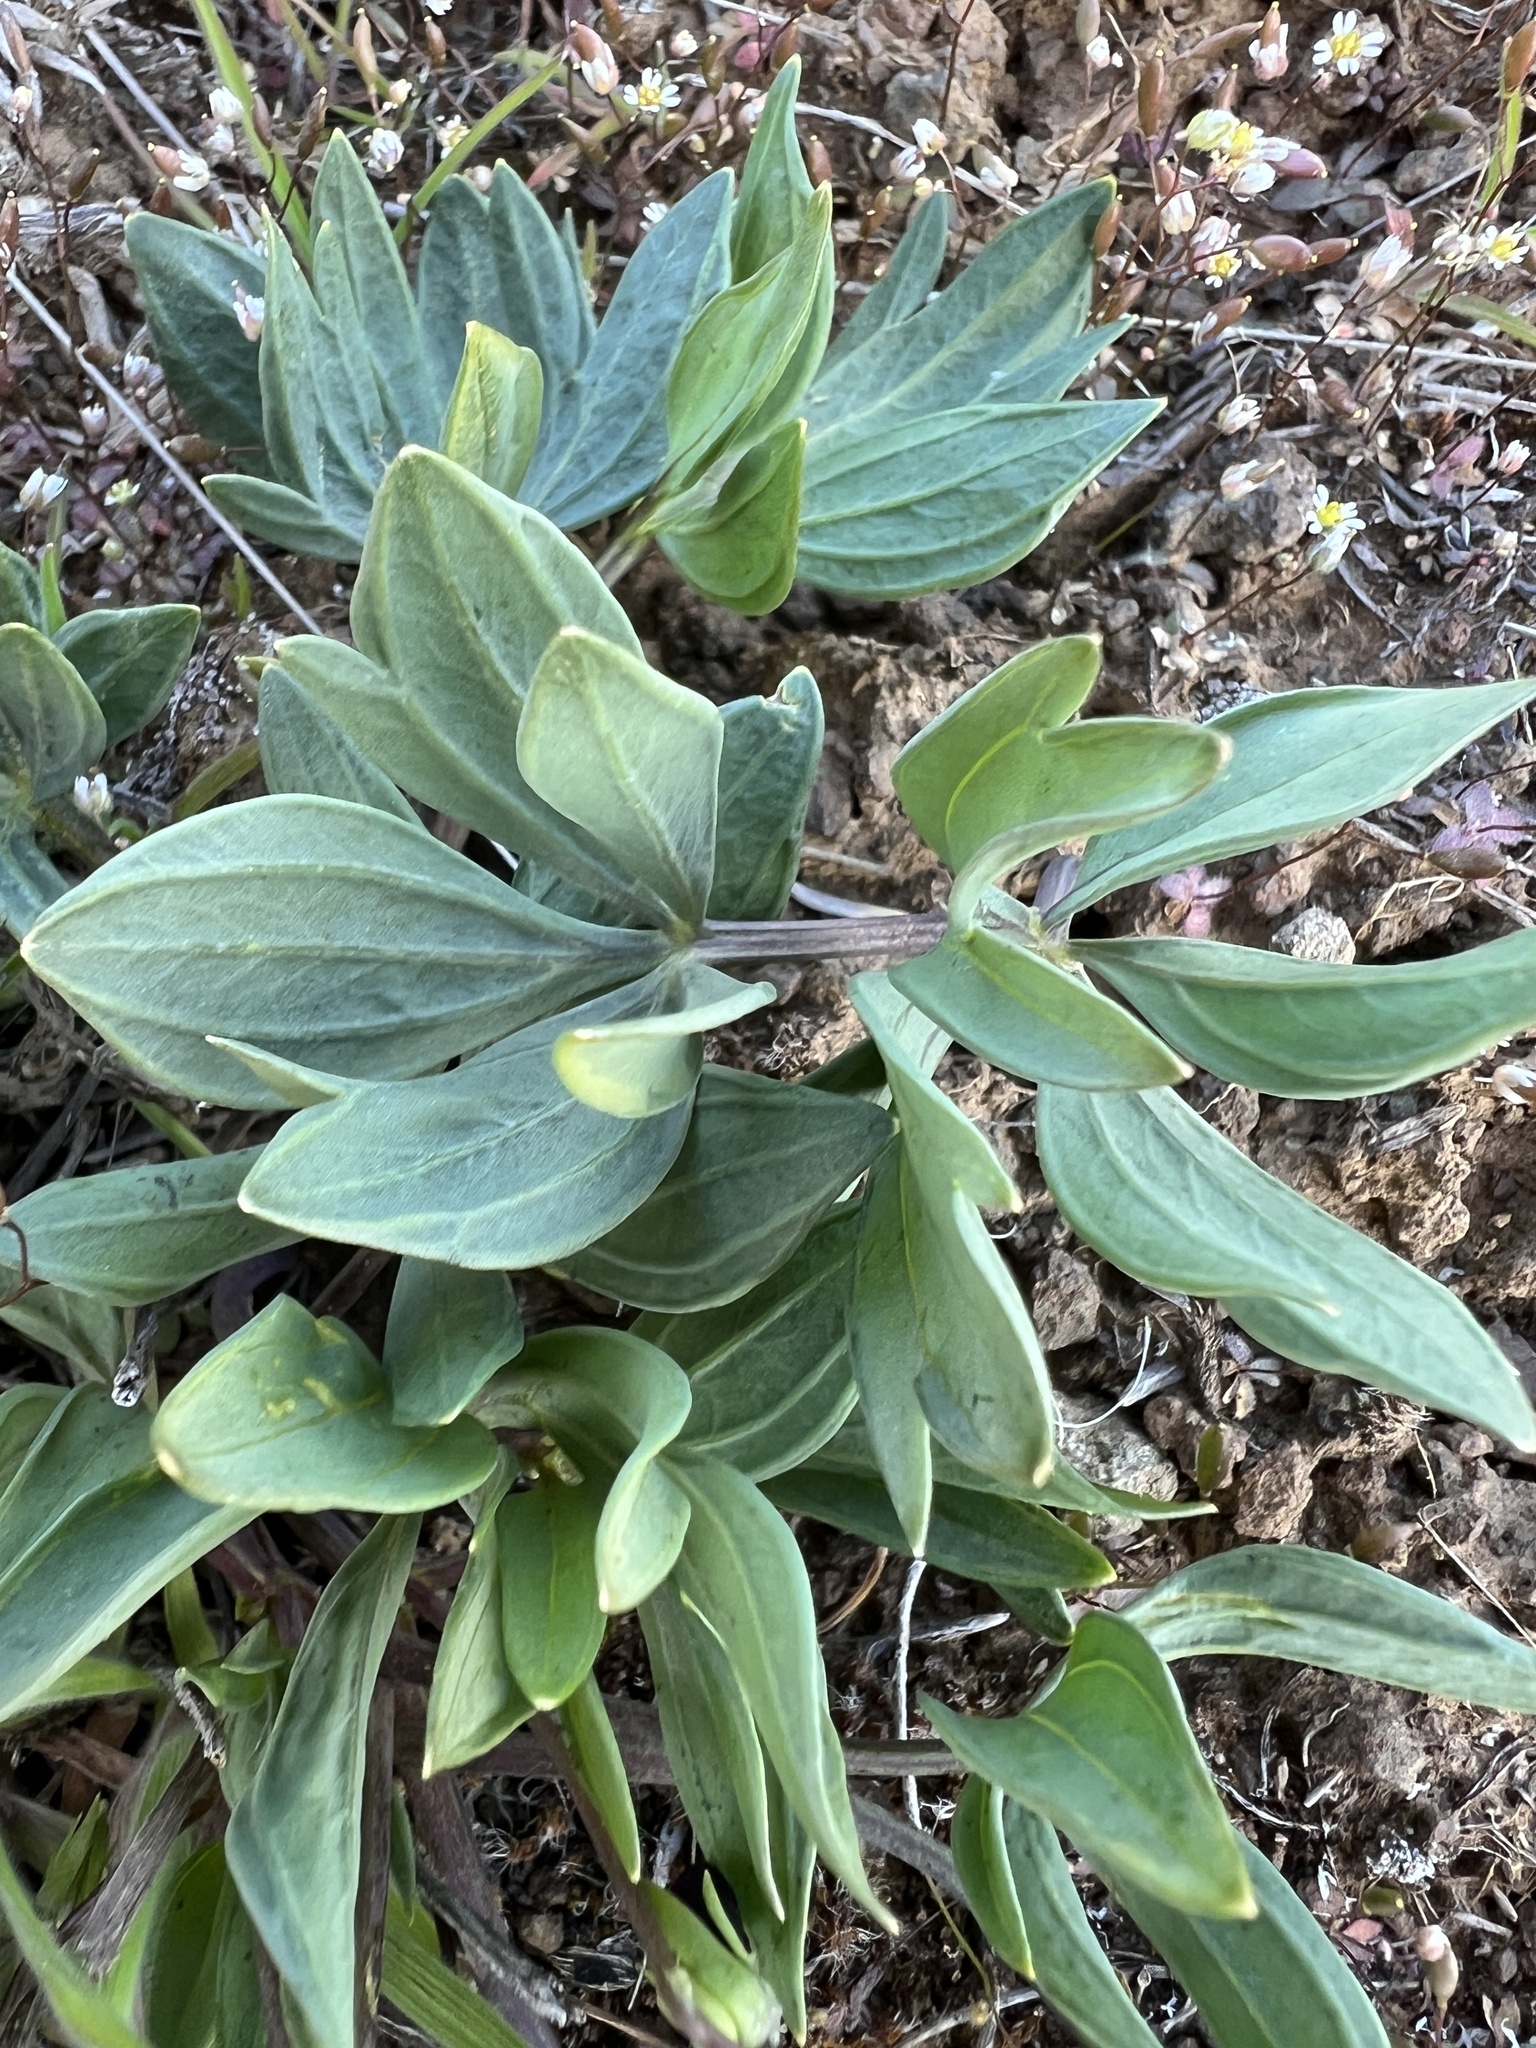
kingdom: Plantae
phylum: Tracheophyta
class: Magnoliopsida
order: Malpighiales
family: Violaceae
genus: Viola
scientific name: Viola trinervata
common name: Sagebrush violet
